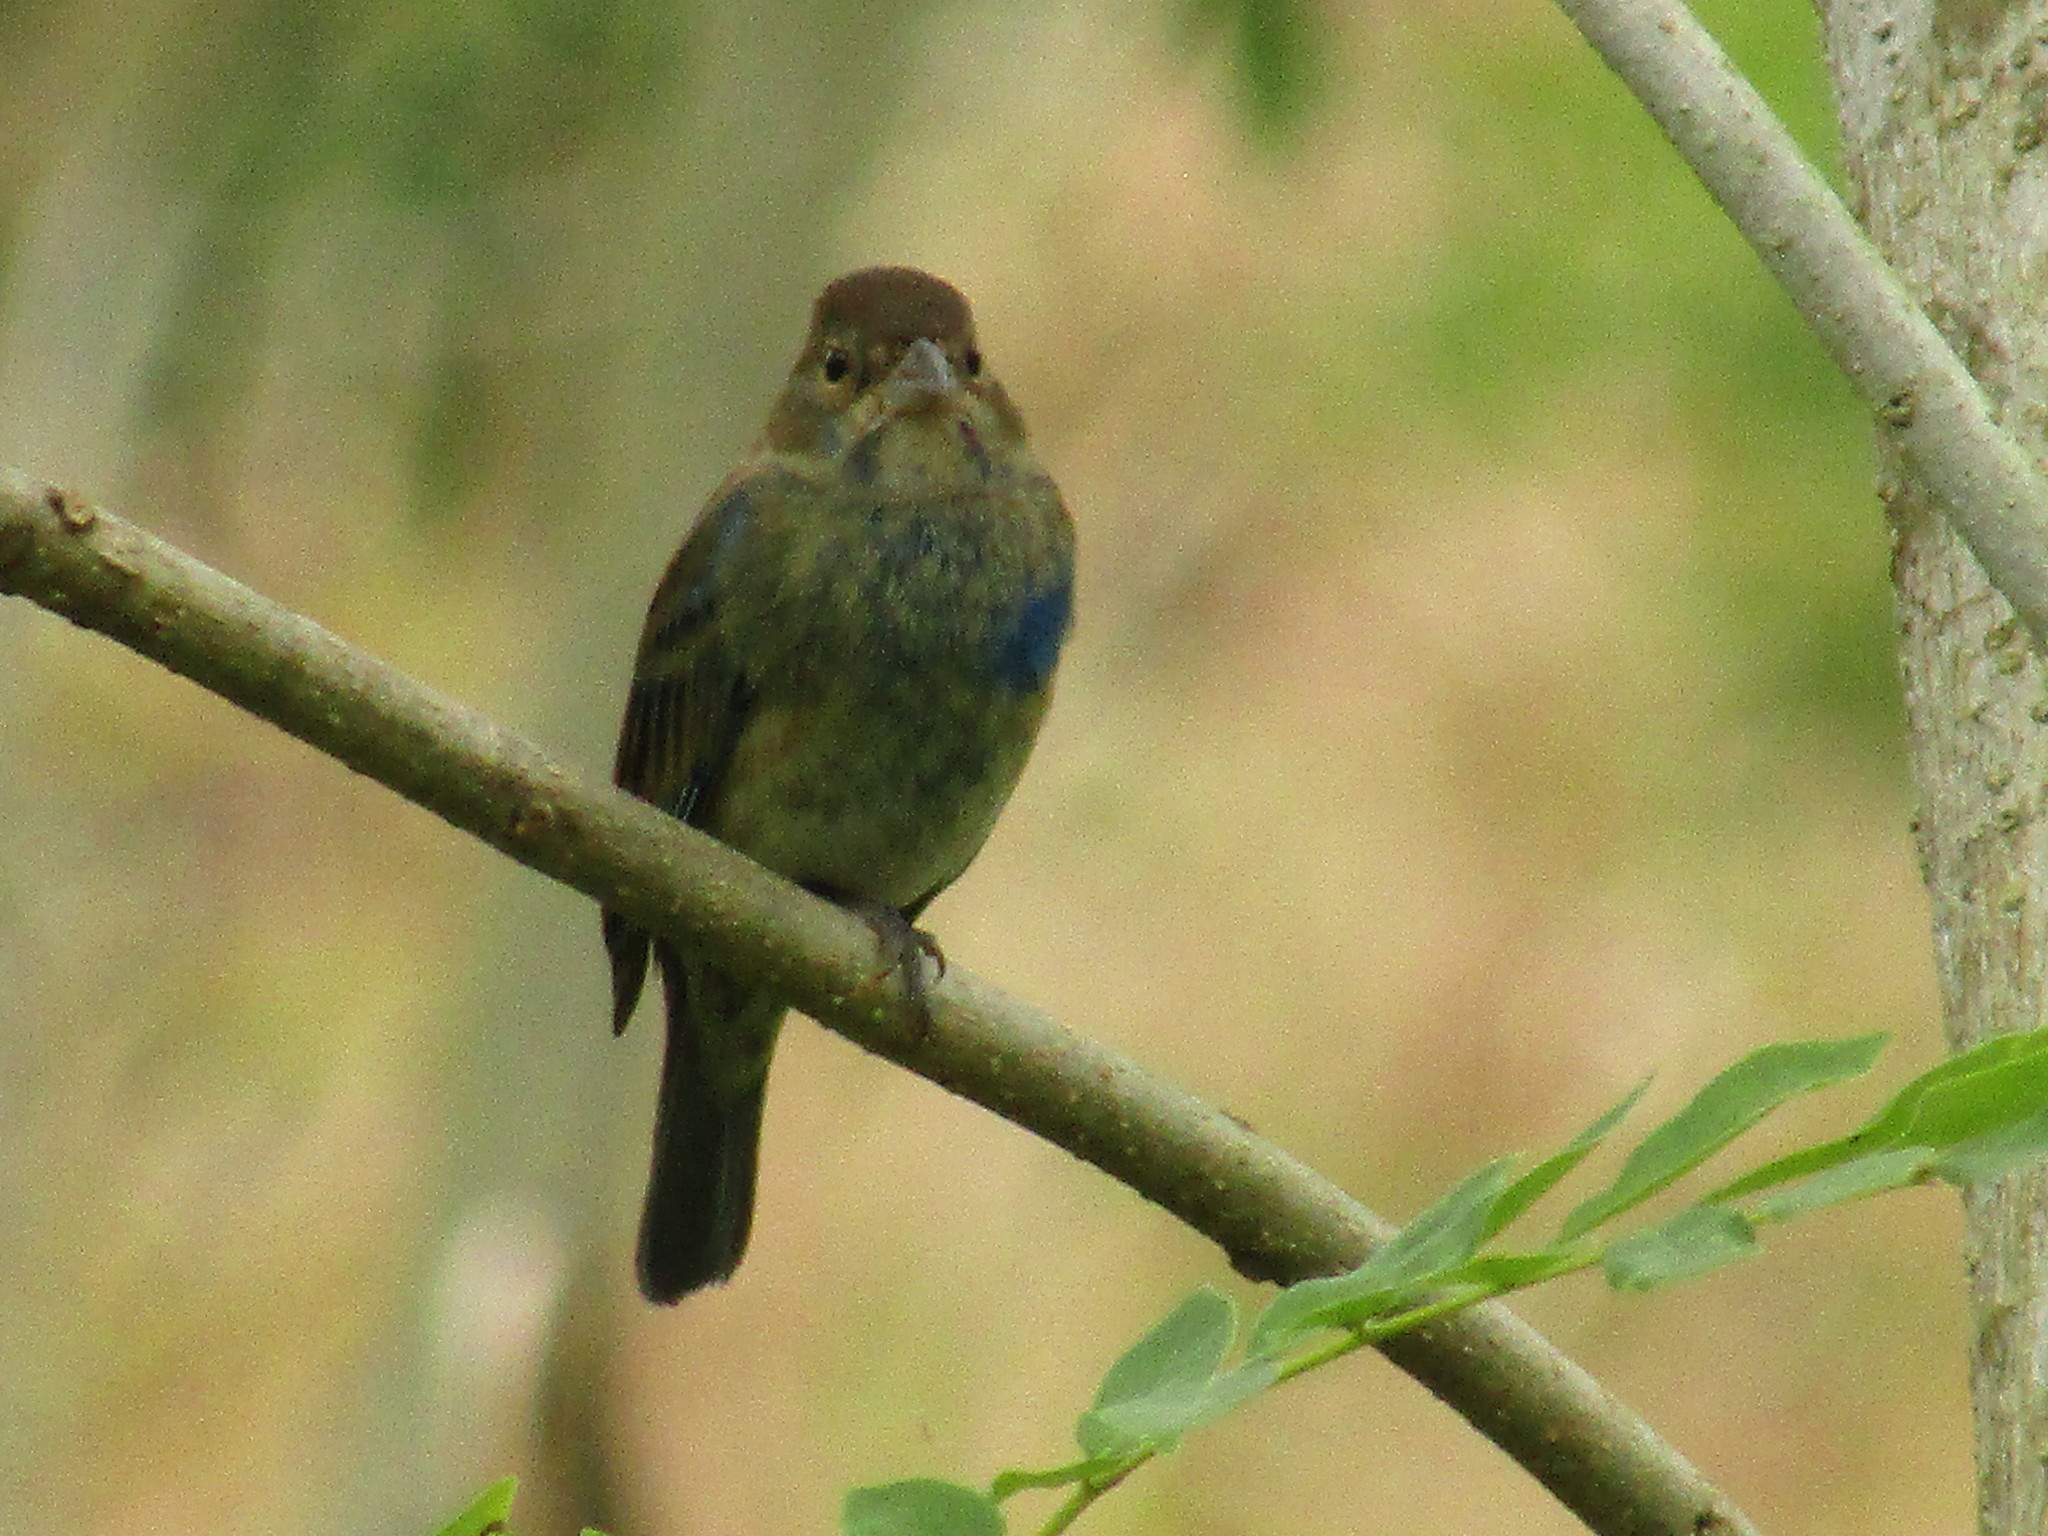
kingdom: Animalia
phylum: Chordata
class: Aves
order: Passeriformes
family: Cardinalidae
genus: Passerina
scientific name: Passerina cyanea
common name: Indigo bunting
